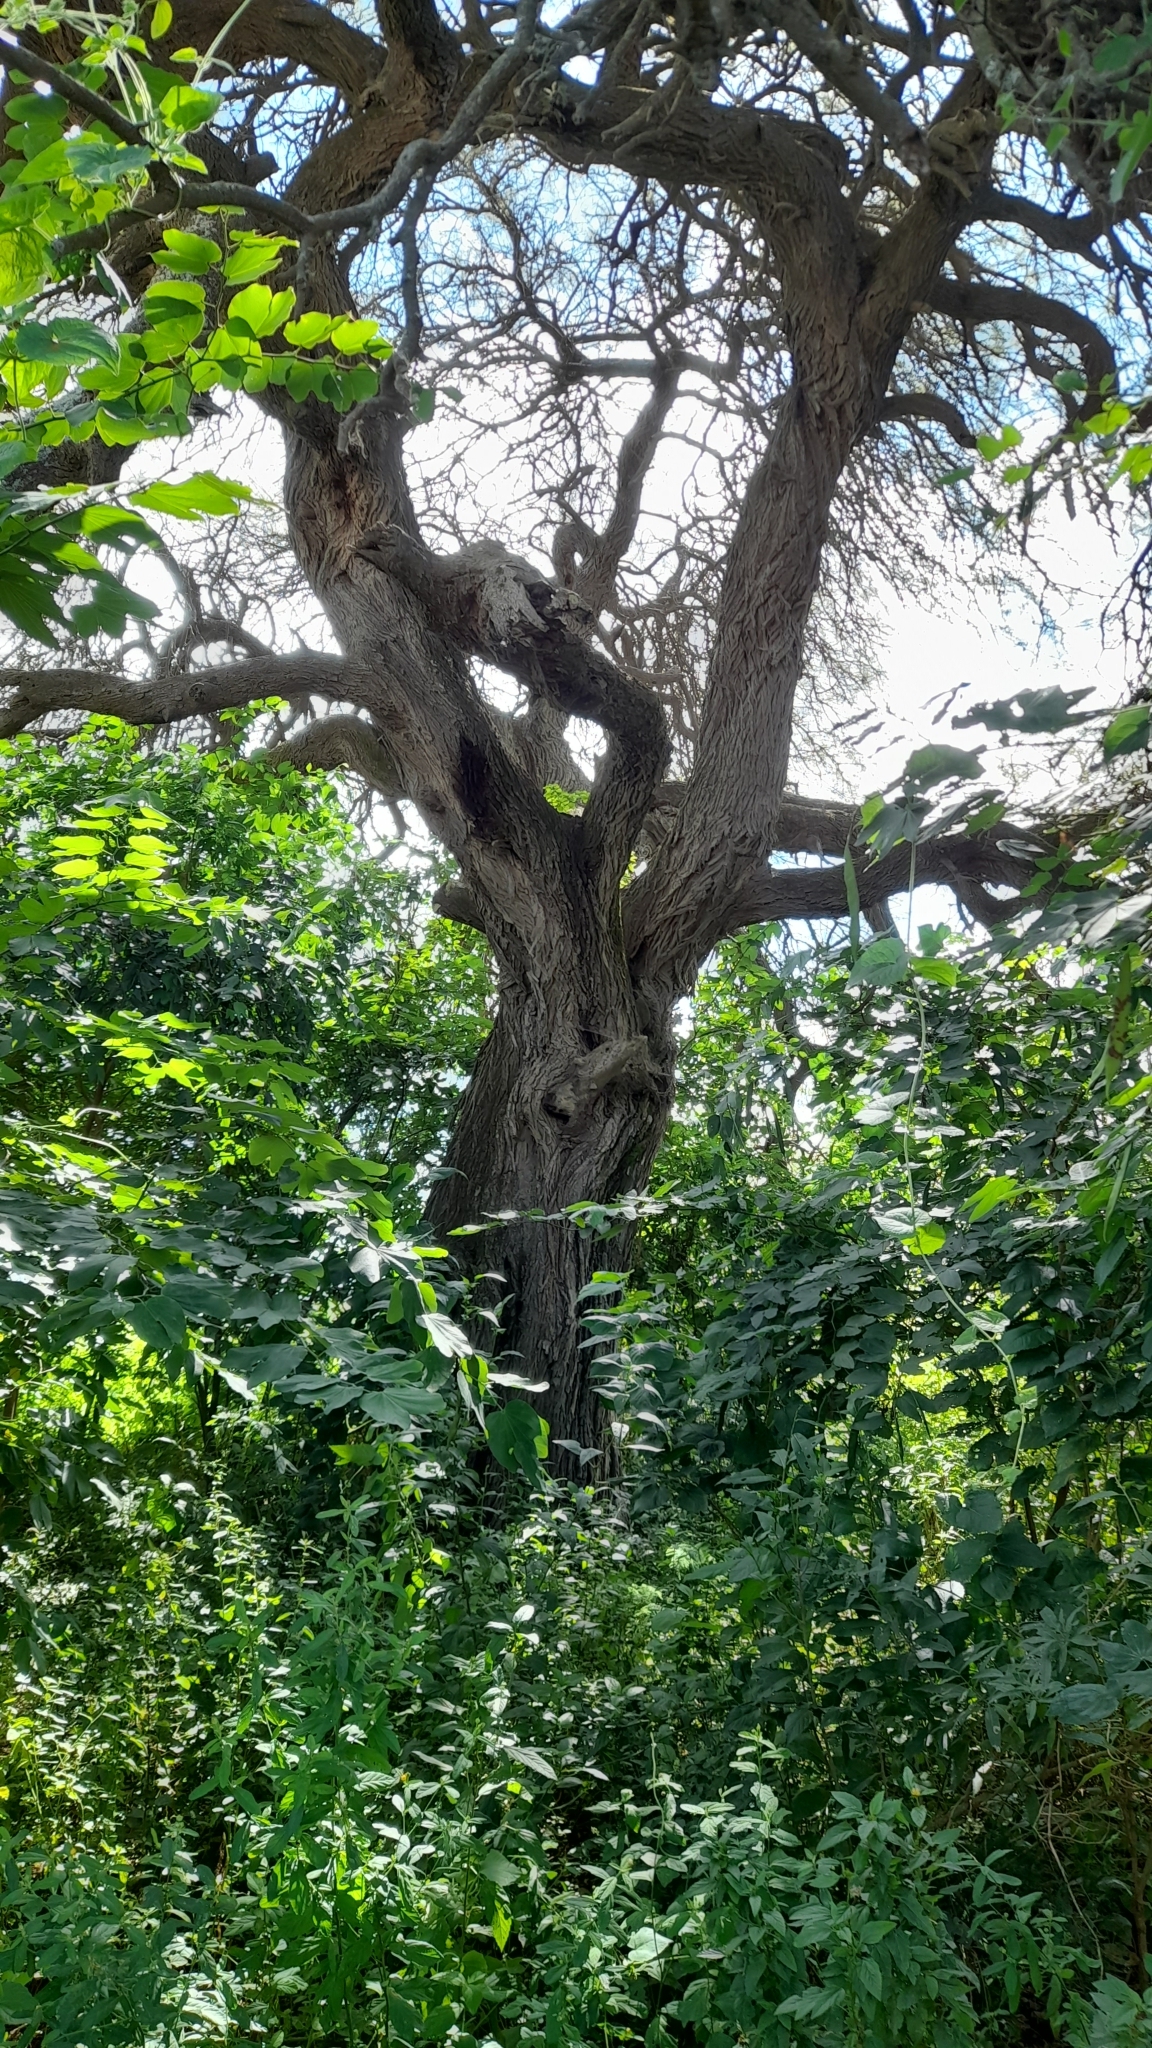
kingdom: Plantae
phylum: Tracheophyta
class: Magnoliopsida
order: Fabales
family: Fabaceae
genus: Prosopis
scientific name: Prosopis alba
